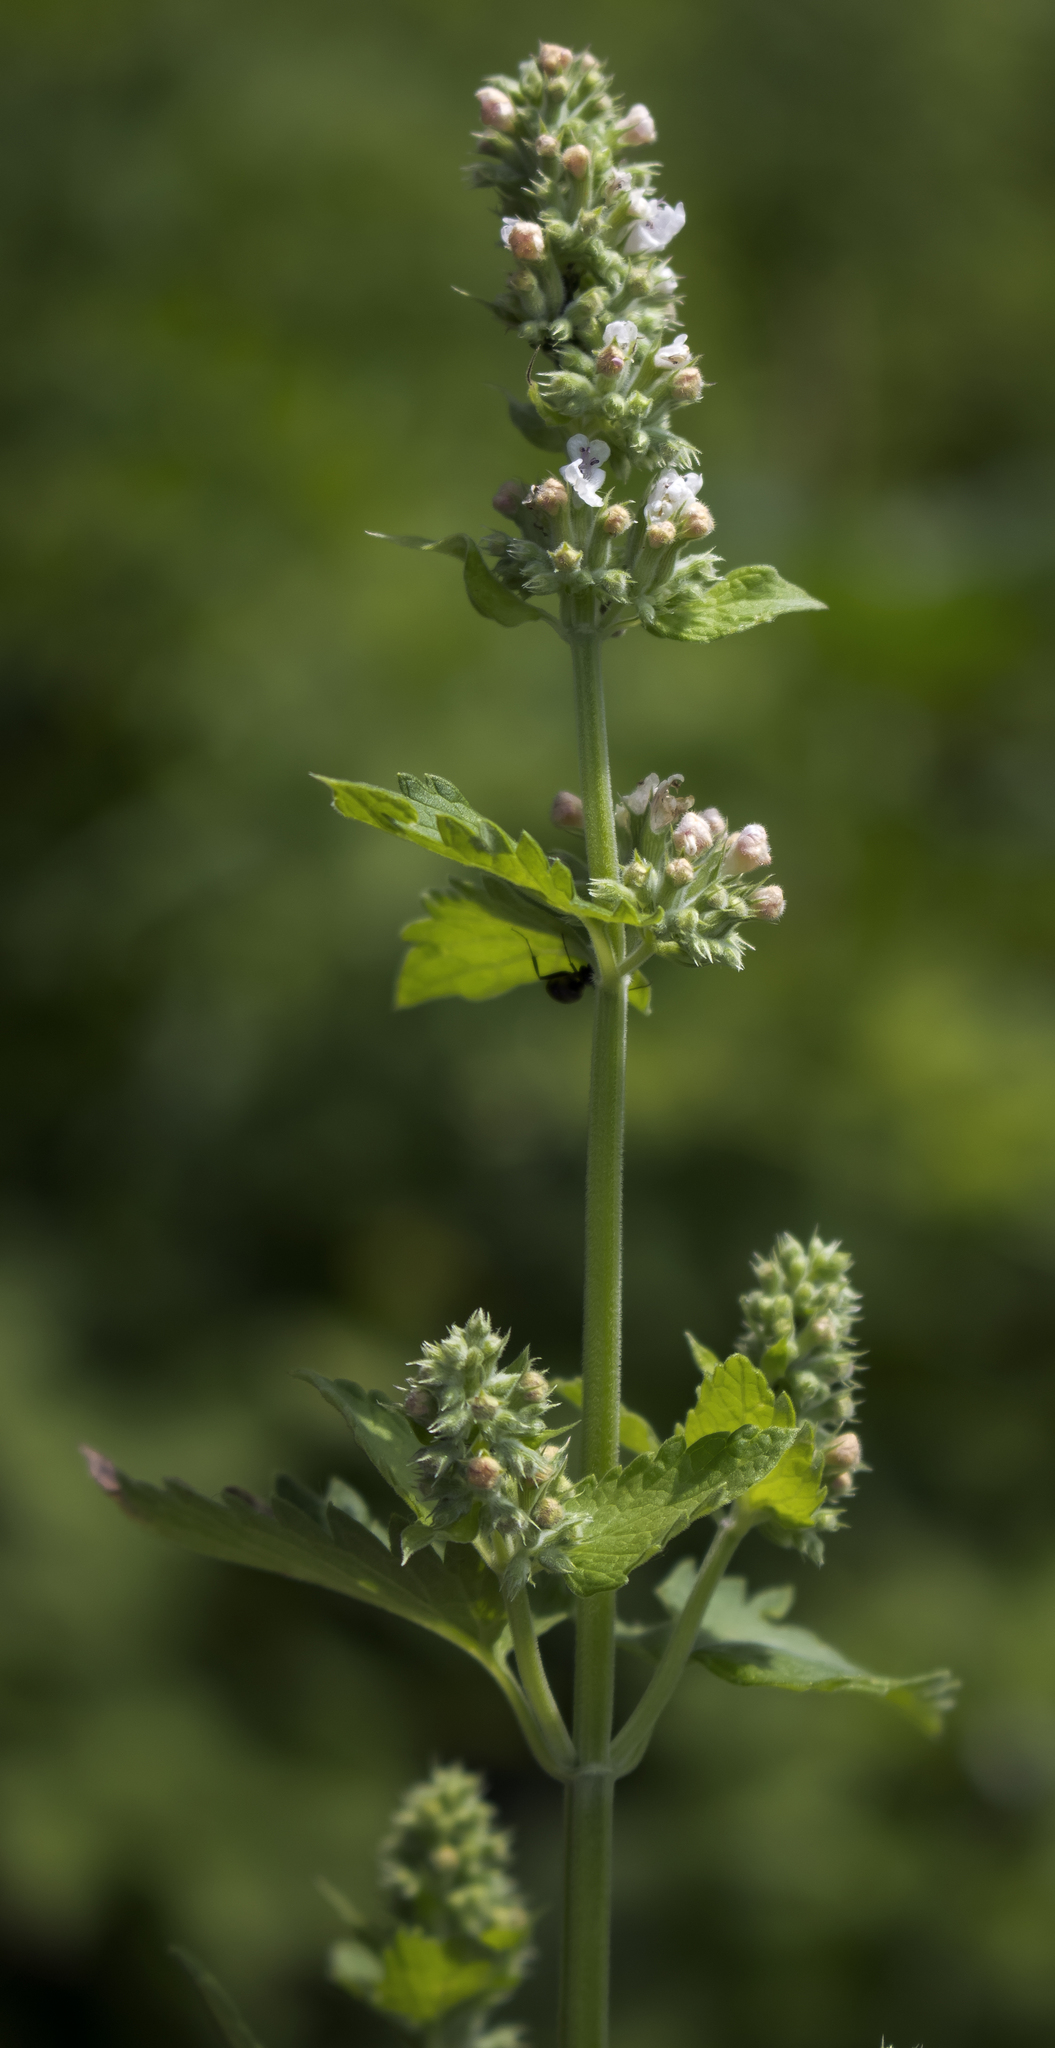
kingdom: Plantae
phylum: Tracheophyta
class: Magnoliopsida
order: Lamiales
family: Lamiaceae
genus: Nepeta
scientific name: Nepeta cataria
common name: Catnip
